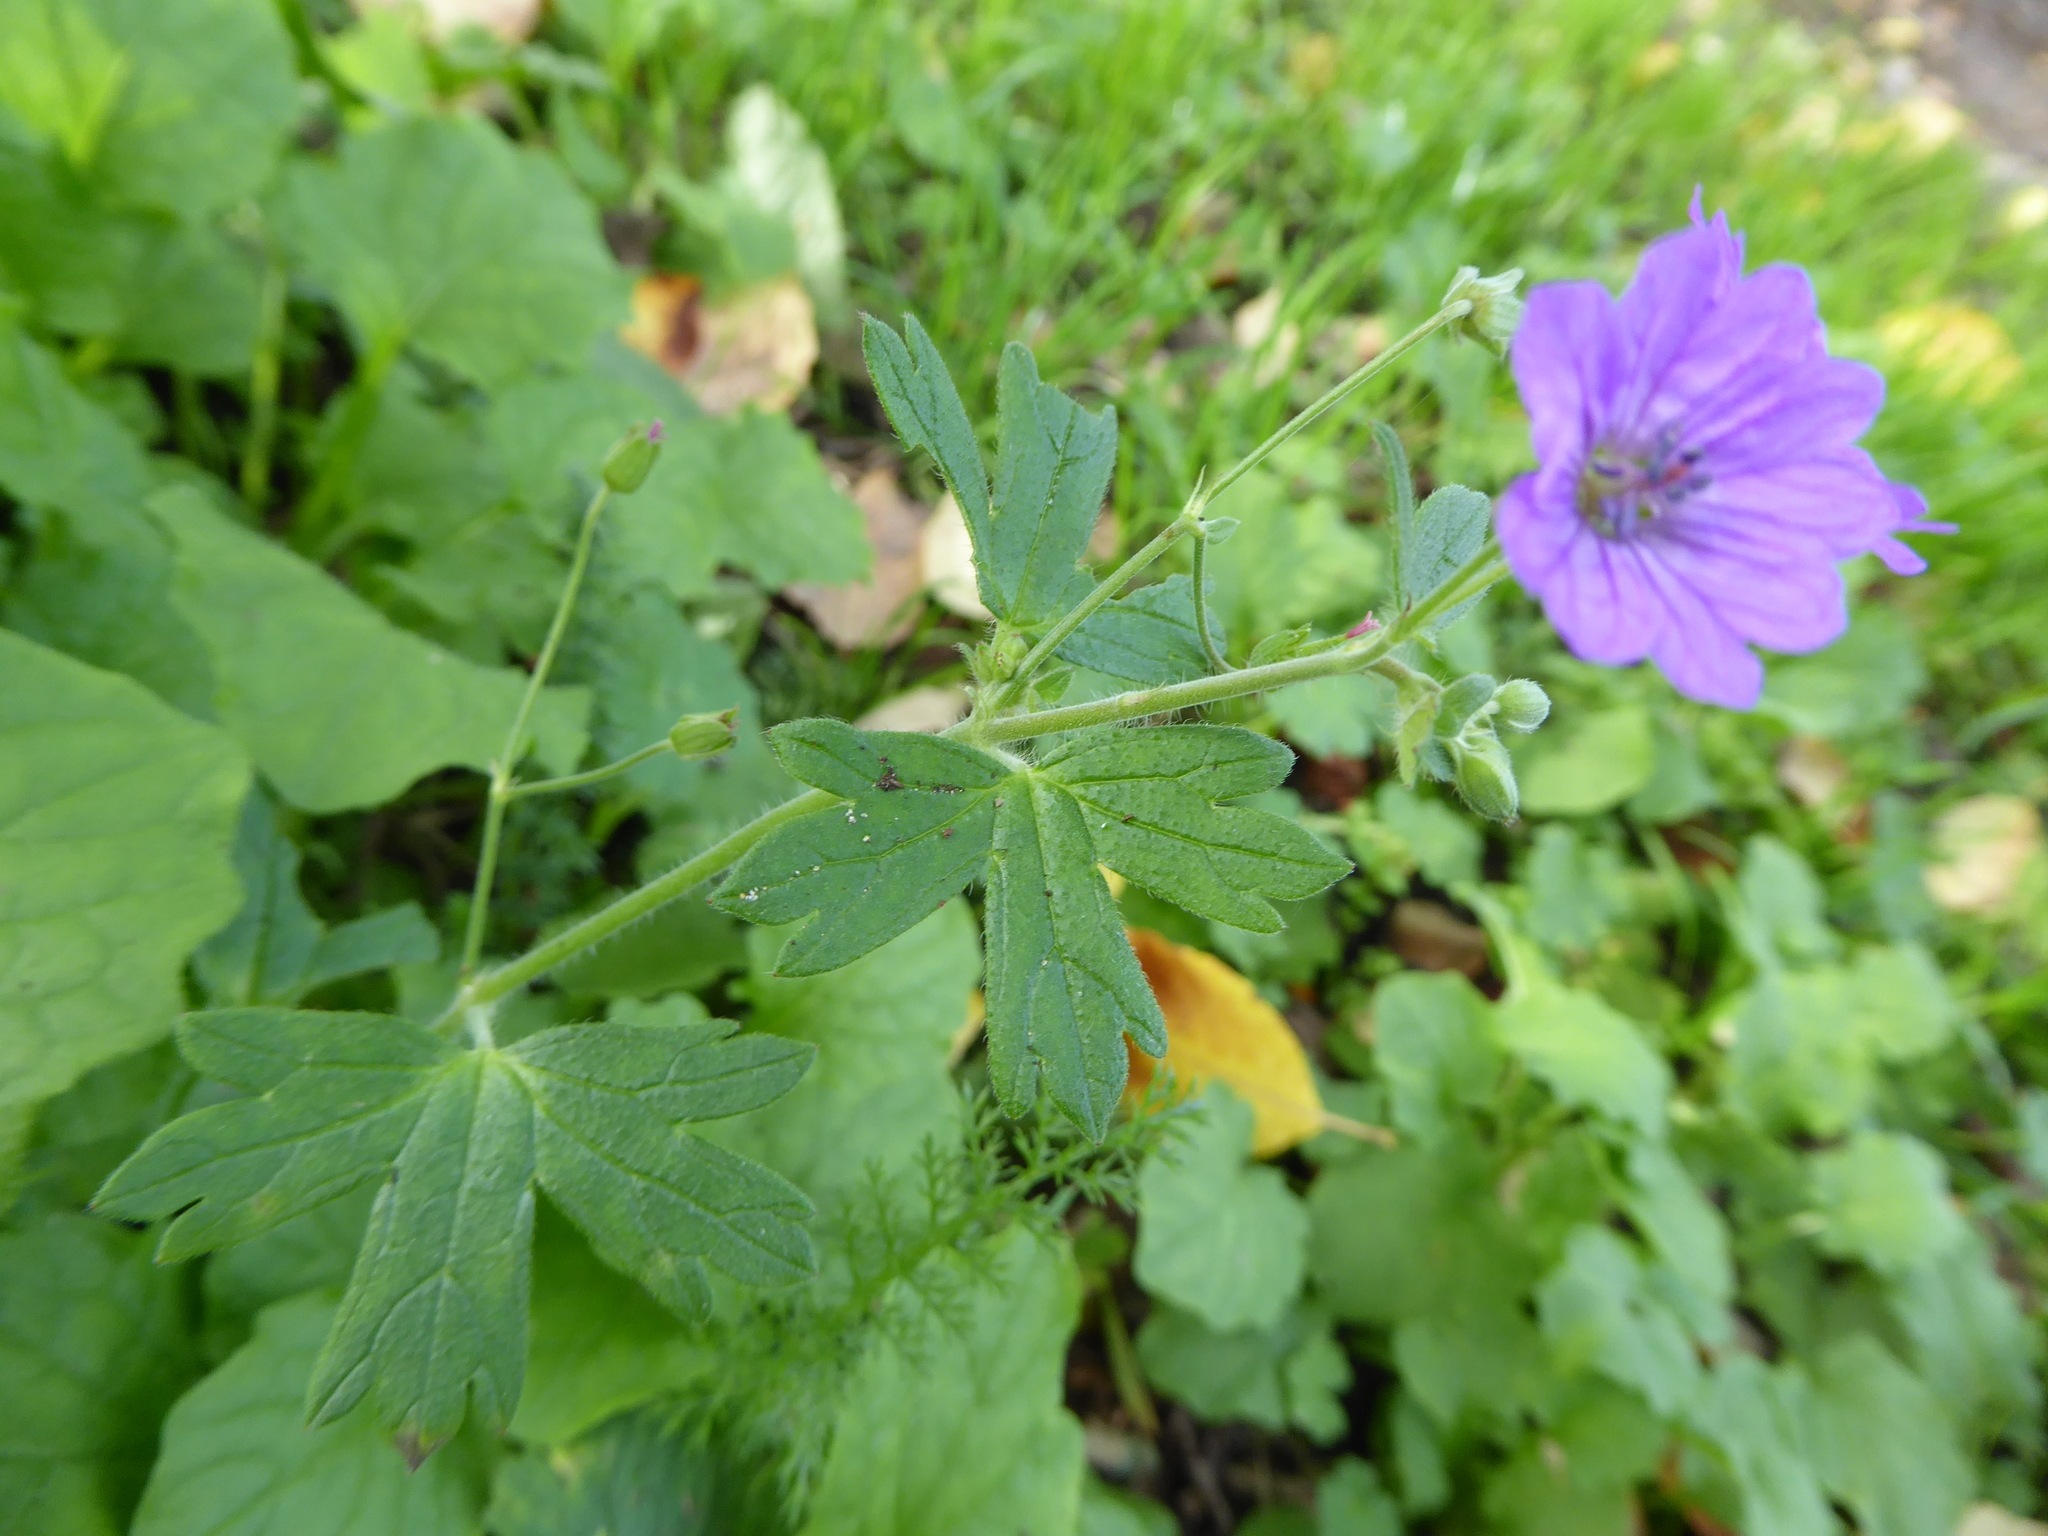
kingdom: Plantae
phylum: Tracheophyta
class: Magnoliopsida
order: Geraniales
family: Geraniaceae
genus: Geranium
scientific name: Geranium pyrenaicum
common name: Hedgerow crane's-bill
